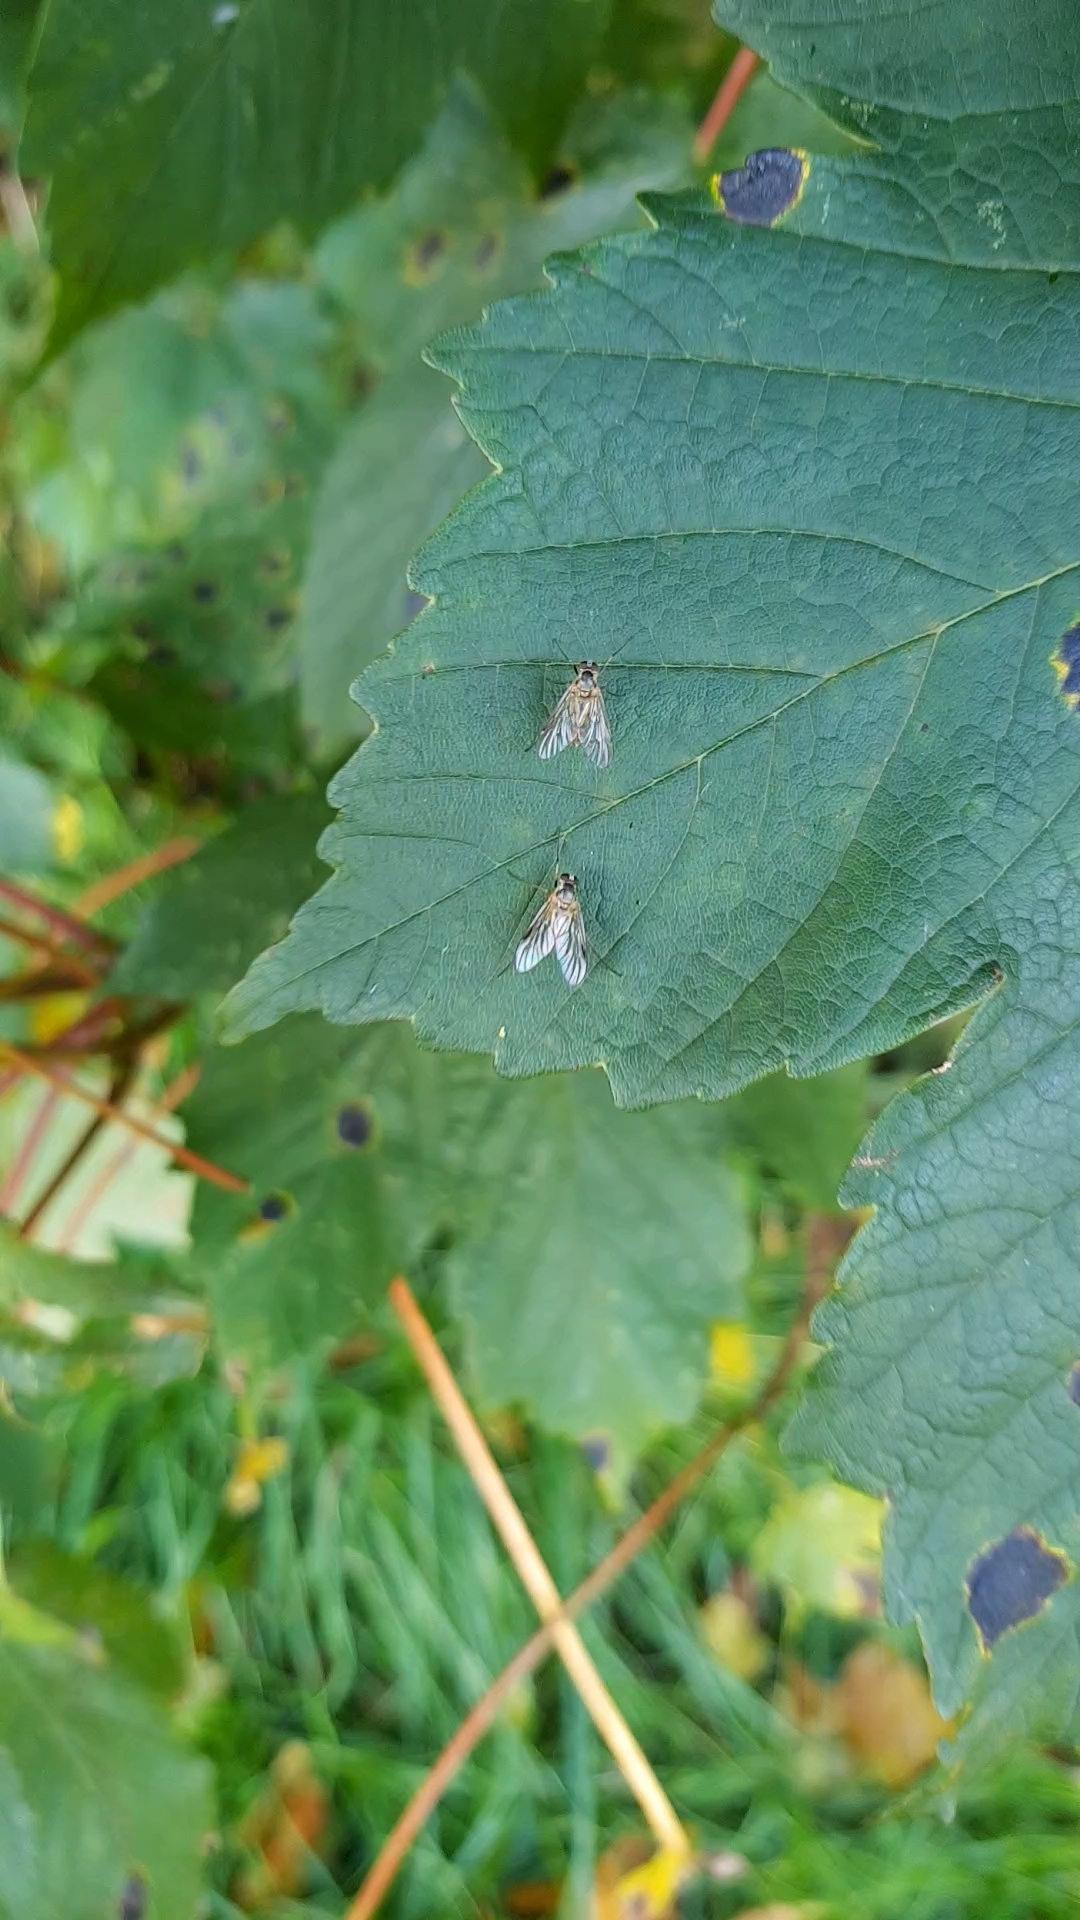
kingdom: Animalia
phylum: Arthropoda
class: Insecta
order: Diptera
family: Rhagionidae
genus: Rhagio
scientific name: Rhagio lineola
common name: Small fleck-winged snipefly
